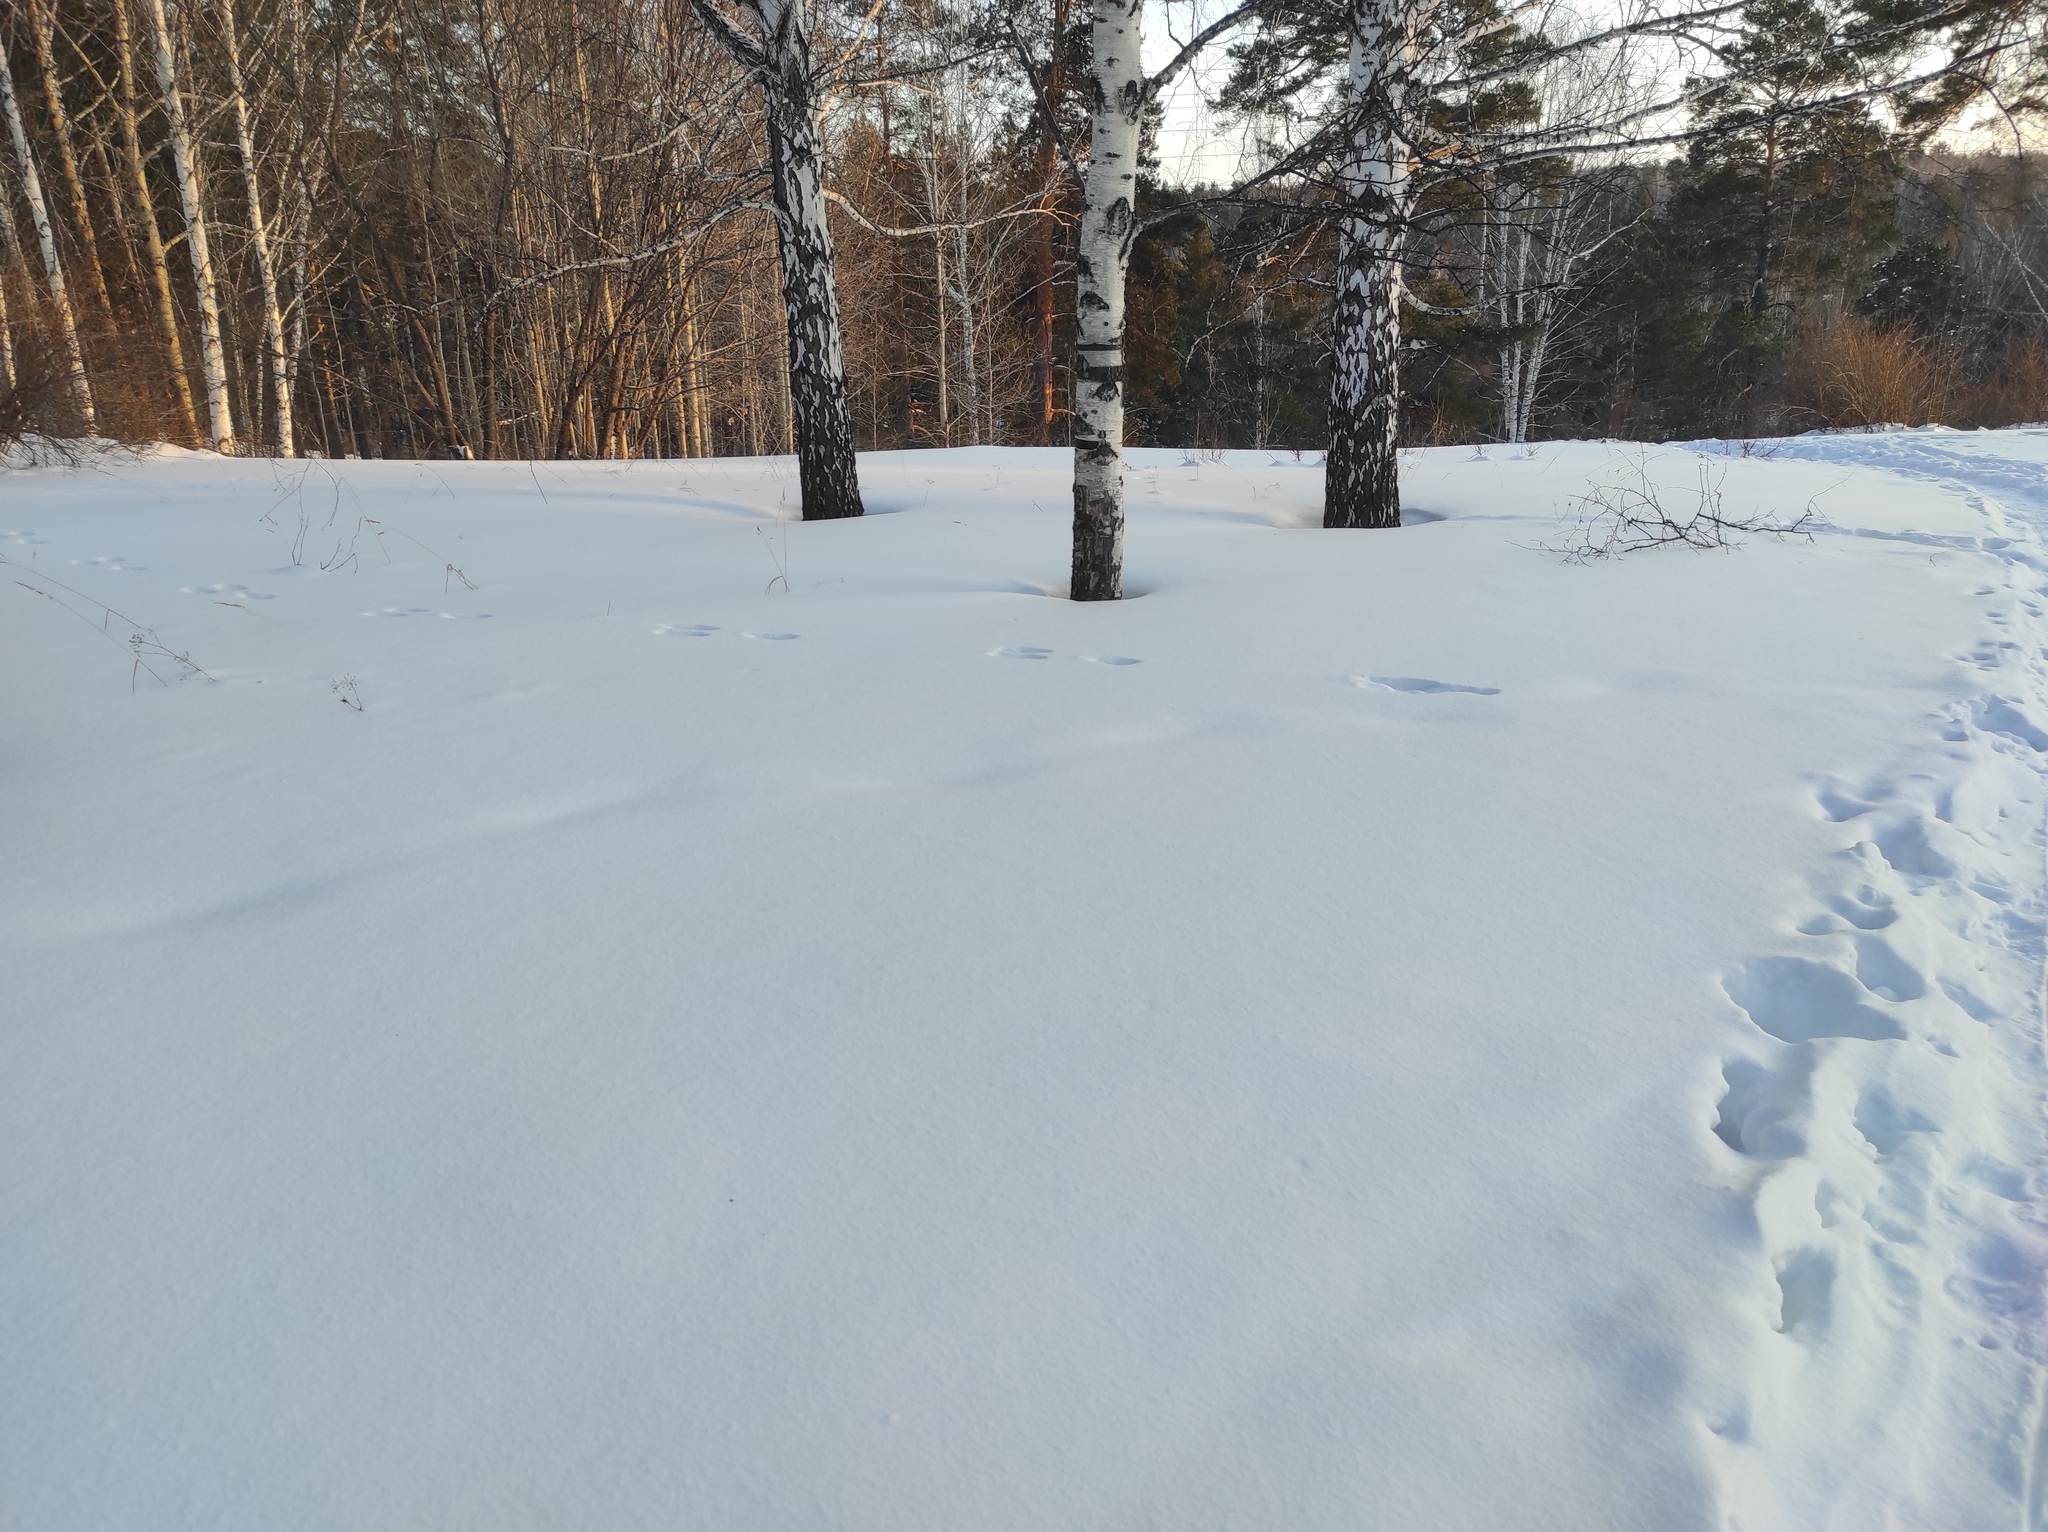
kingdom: Plantae
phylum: Tracheophyta
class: Magnoliopsida
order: Fagales
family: Betulaceae
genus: Betula
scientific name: Betula pendula
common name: Silver birch
